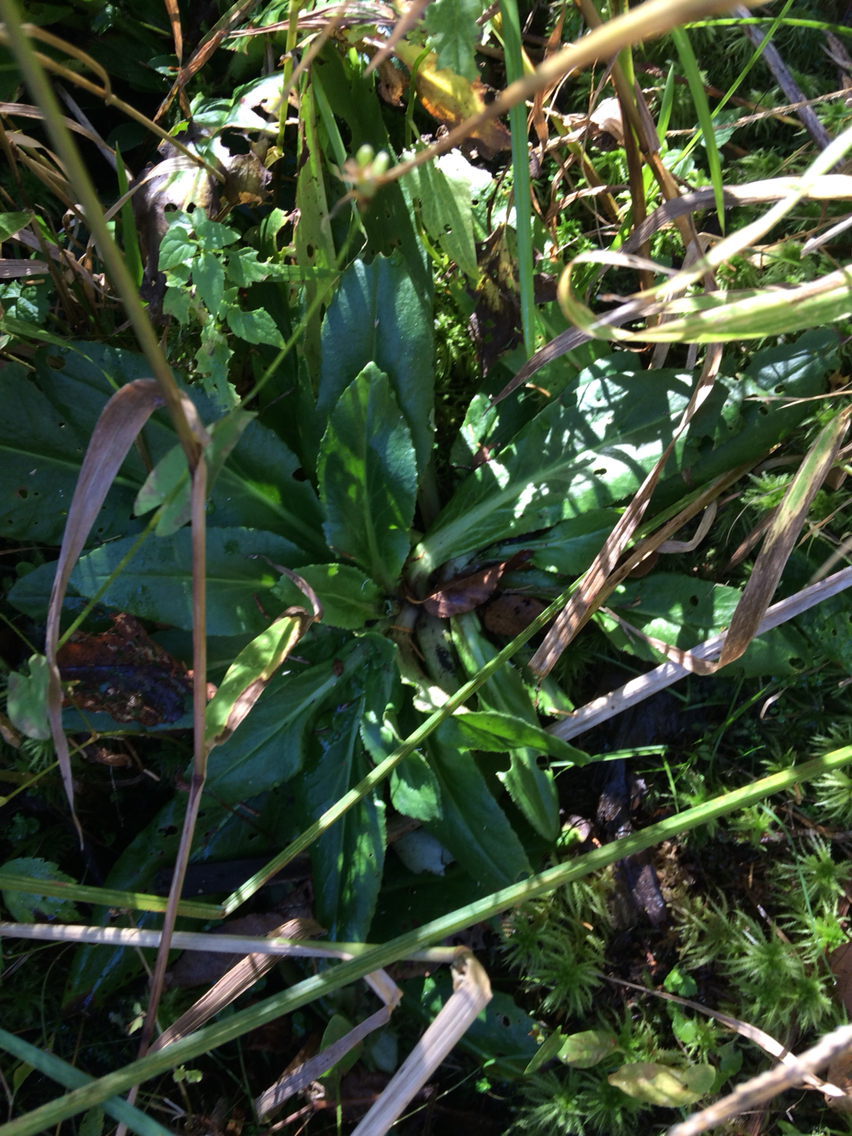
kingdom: Plantae
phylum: Tracheophyta
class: Magnoliopsida
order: Saxifragales
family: Saxifragaceae
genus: Micranthes
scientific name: Micranthes pensylvanica
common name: Marsh saxifrage
